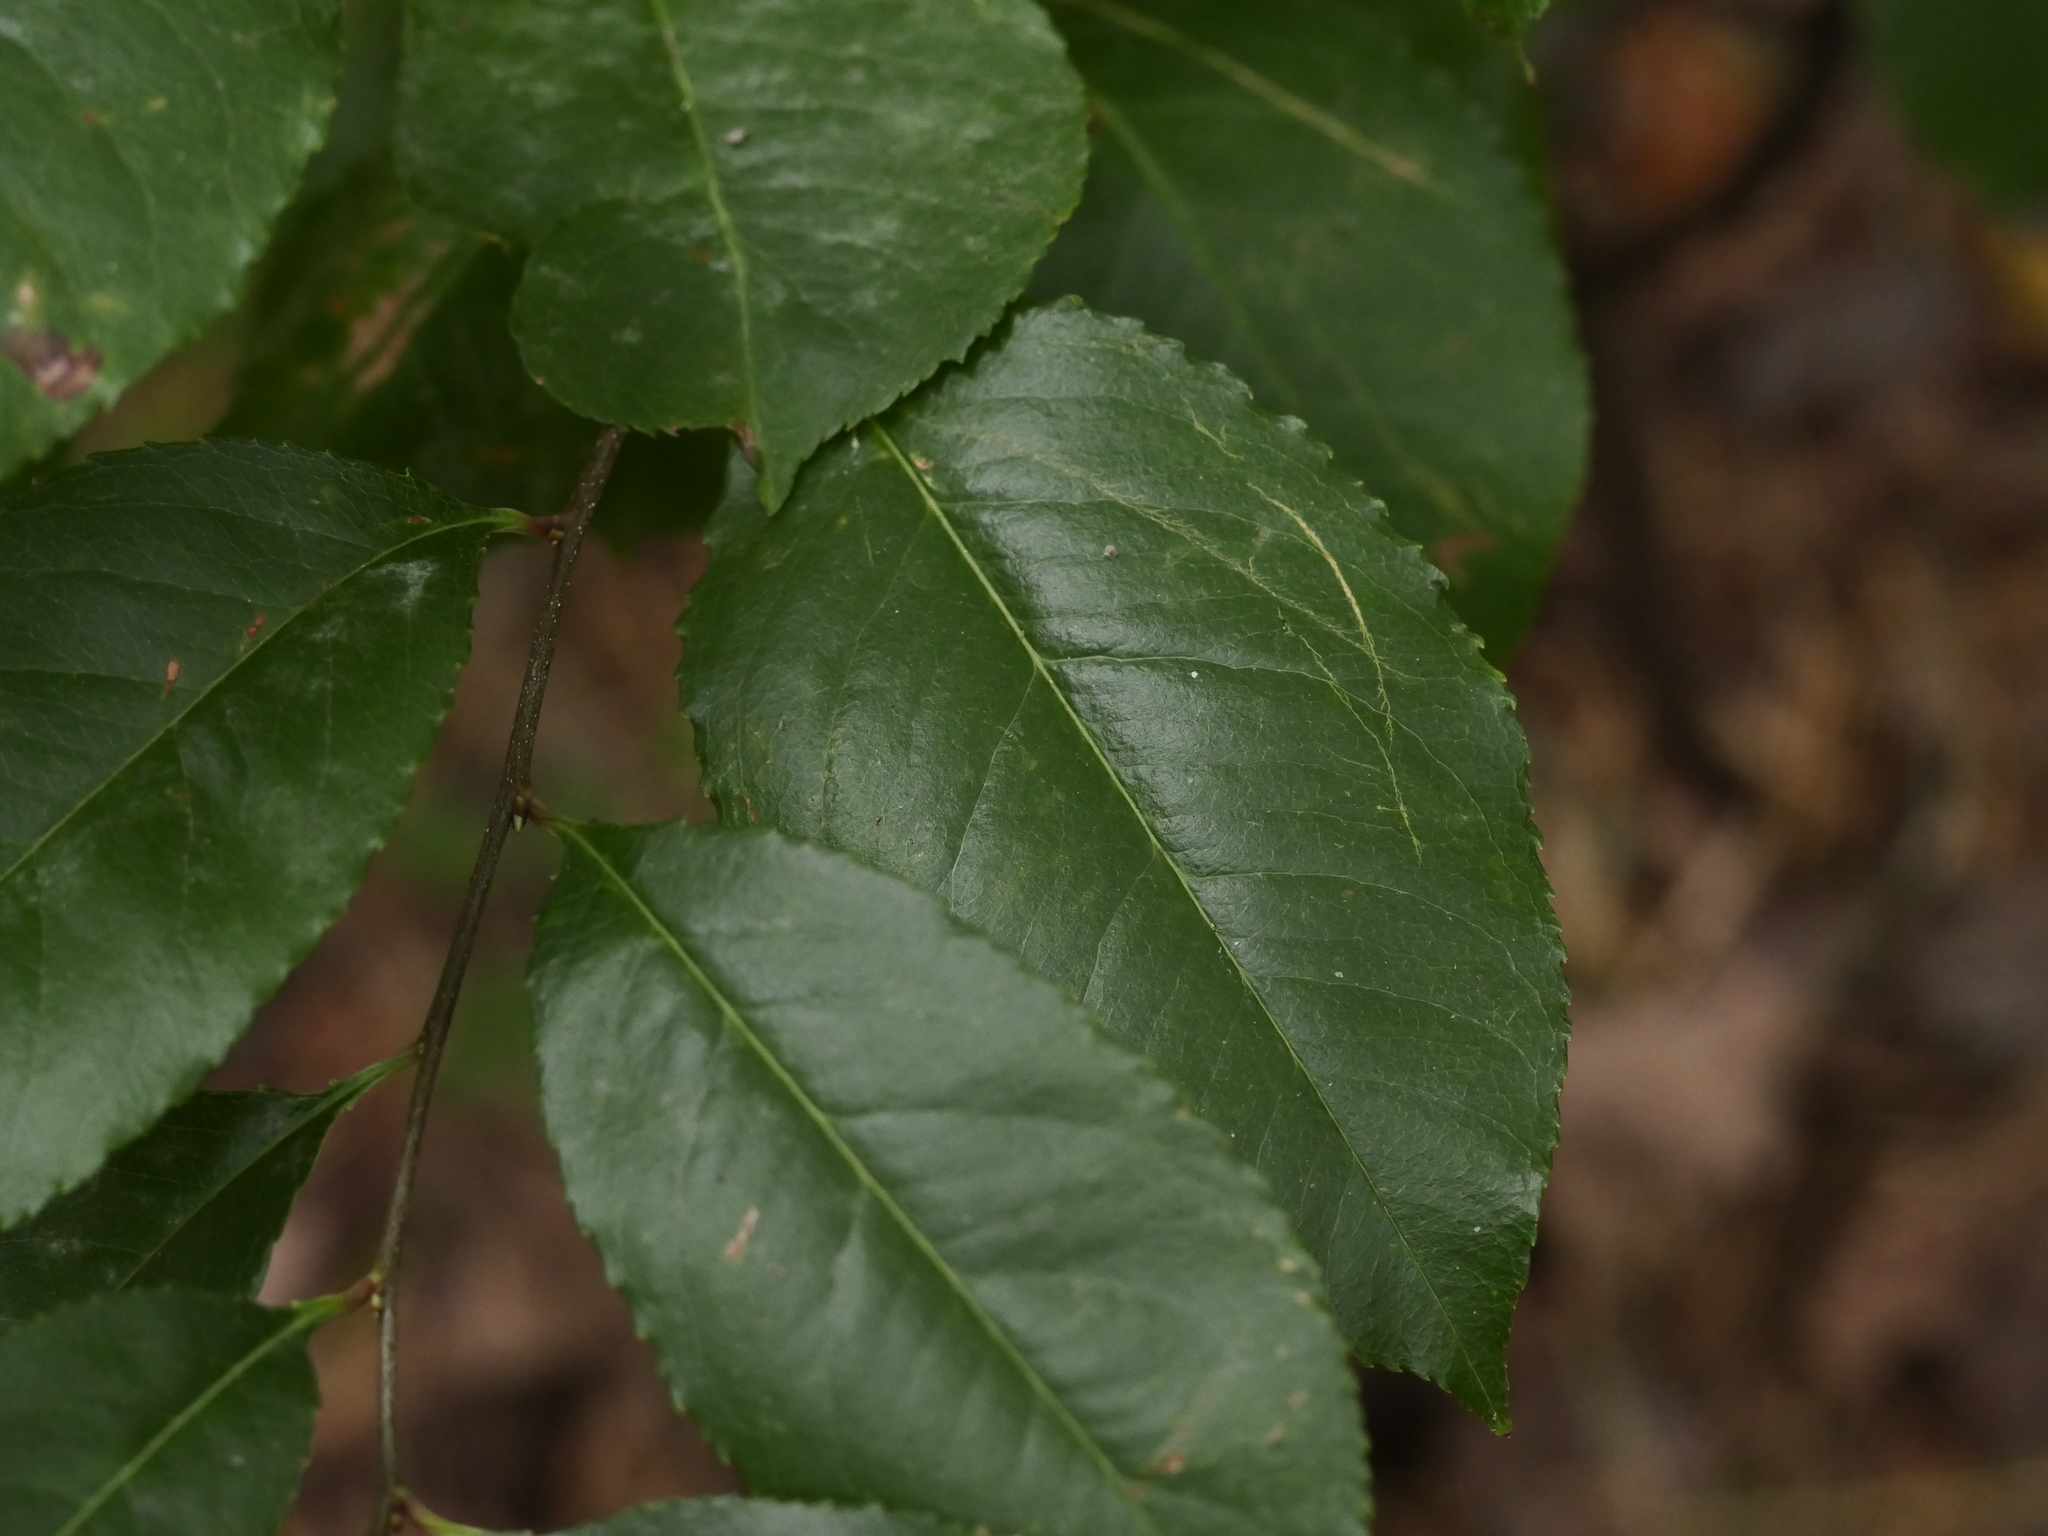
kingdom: Plantae
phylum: Tracheophyta
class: Magnoliopsida
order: Rosales
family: Rosaceae
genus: Prunus
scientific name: Prunus serotina
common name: Black cherry
